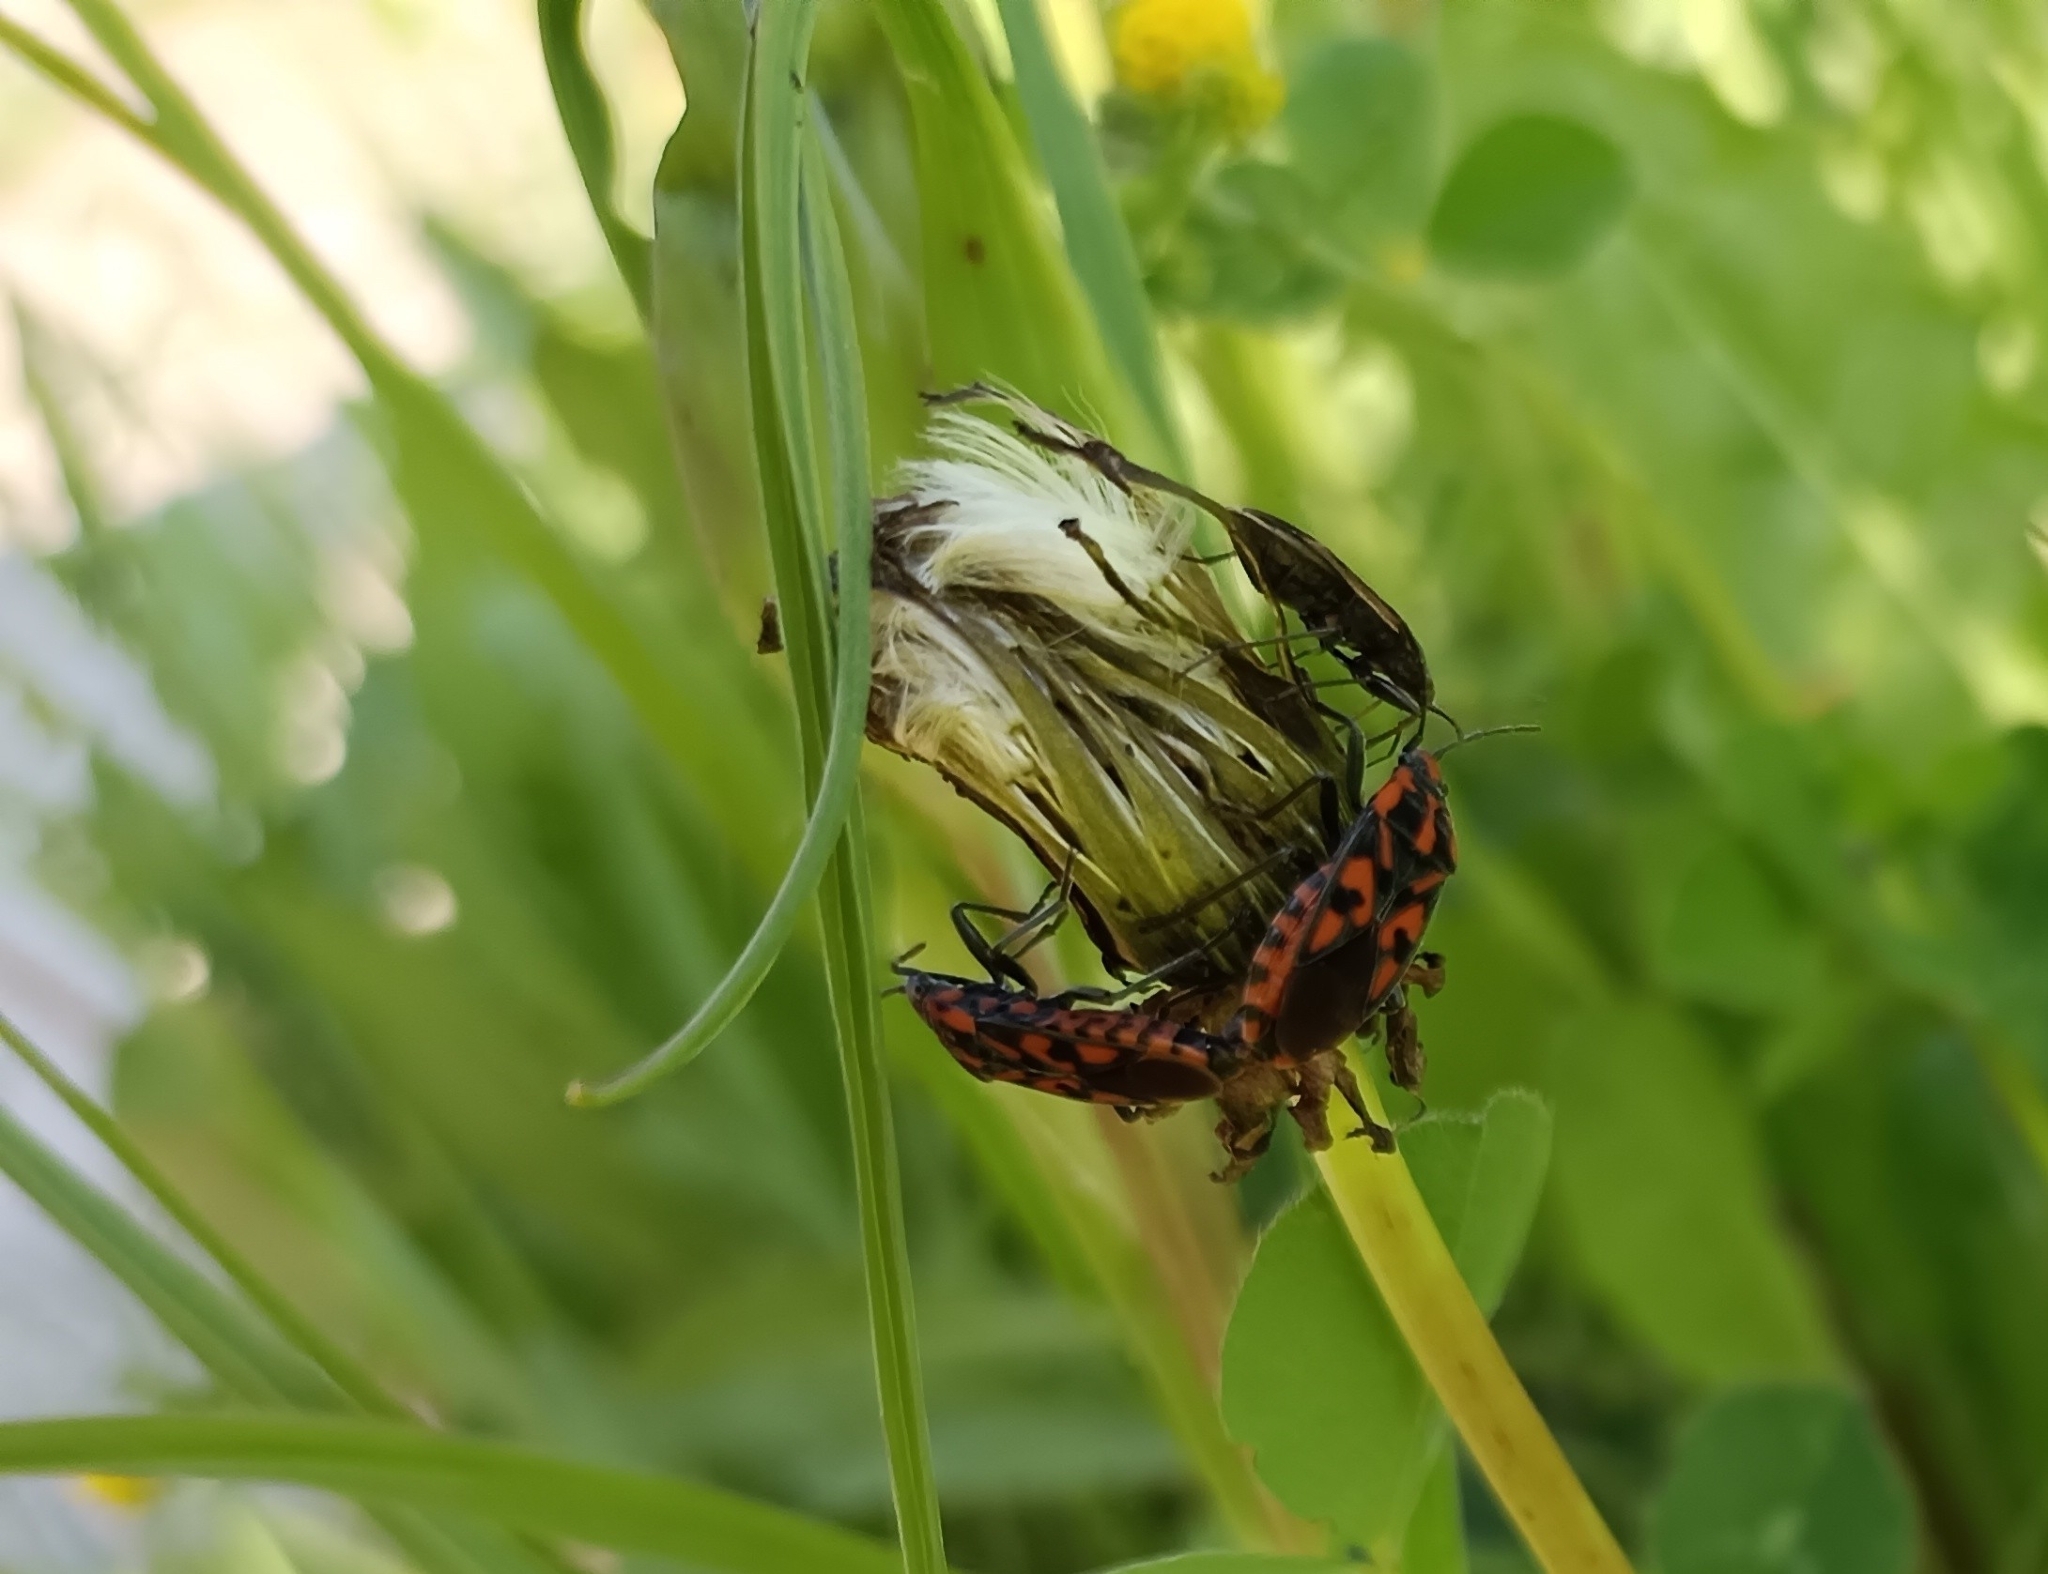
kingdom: Animalia
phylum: Arthropoda
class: Insecta
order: Hemiptera
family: Lygaeidae
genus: Spilostethus
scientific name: Spilostethus saxatilis
